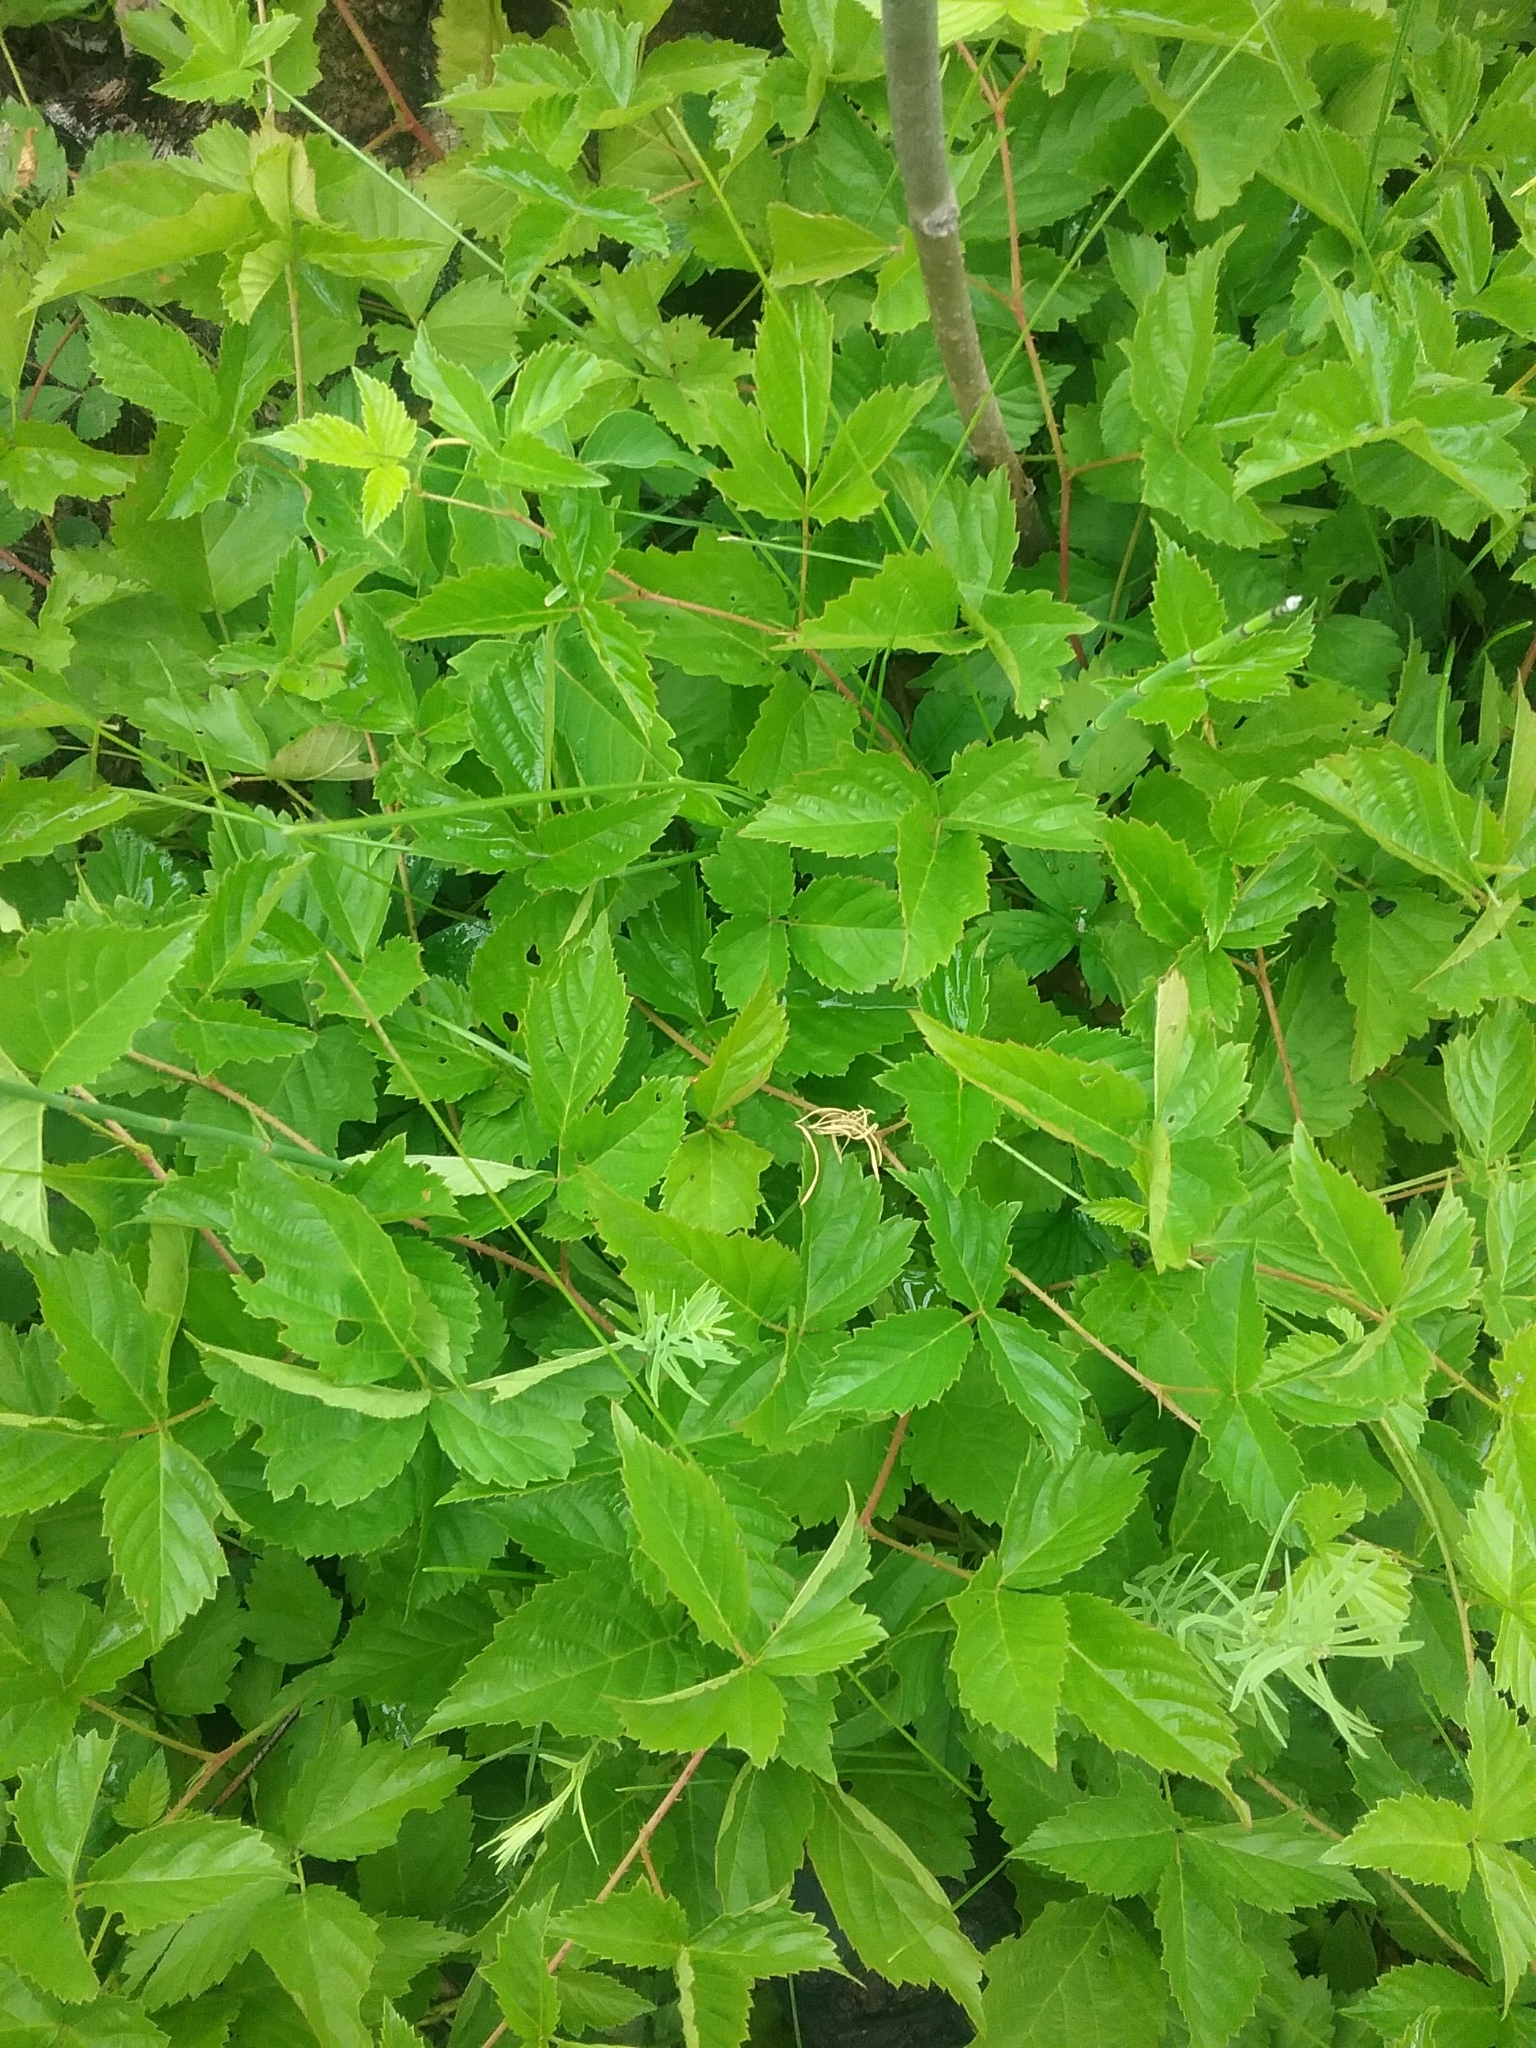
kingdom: Plantae
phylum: Tracheophyta
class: Magnoliopsida
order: Rosales
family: Rosaceae
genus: Rubus
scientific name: Rubus flagellaris
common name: American dewberry
